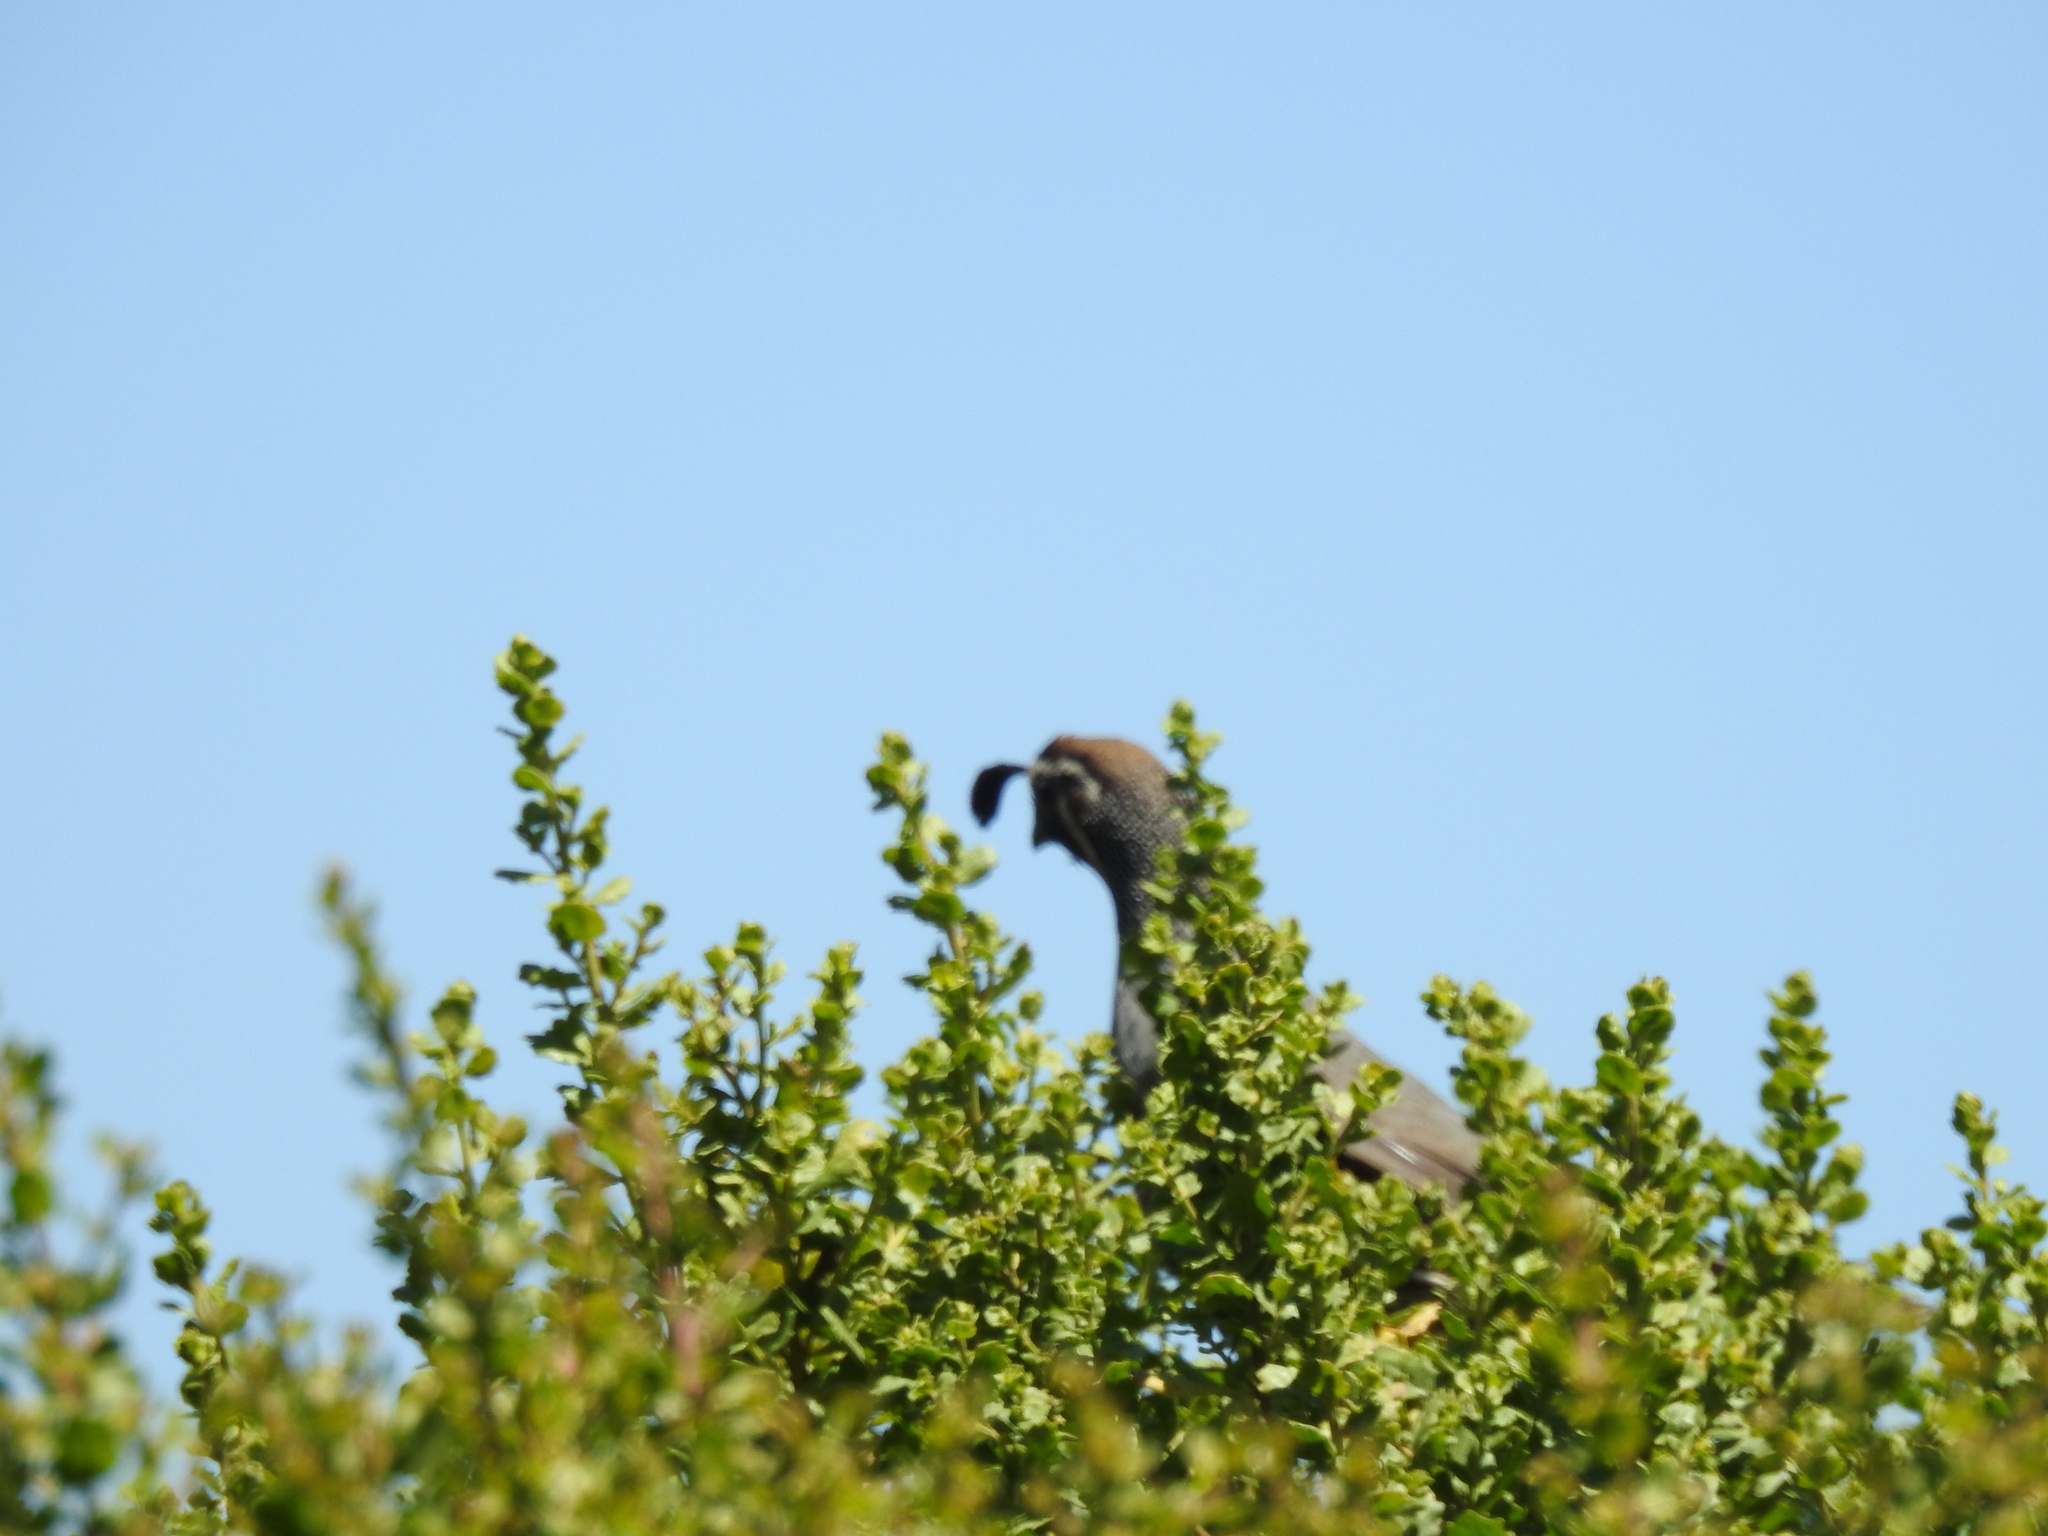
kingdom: Animalia
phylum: Chordata
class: Aves
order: Galliformes
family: Odontophoridae
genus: Callipepla
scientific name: Callipepla californica
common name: California quail
